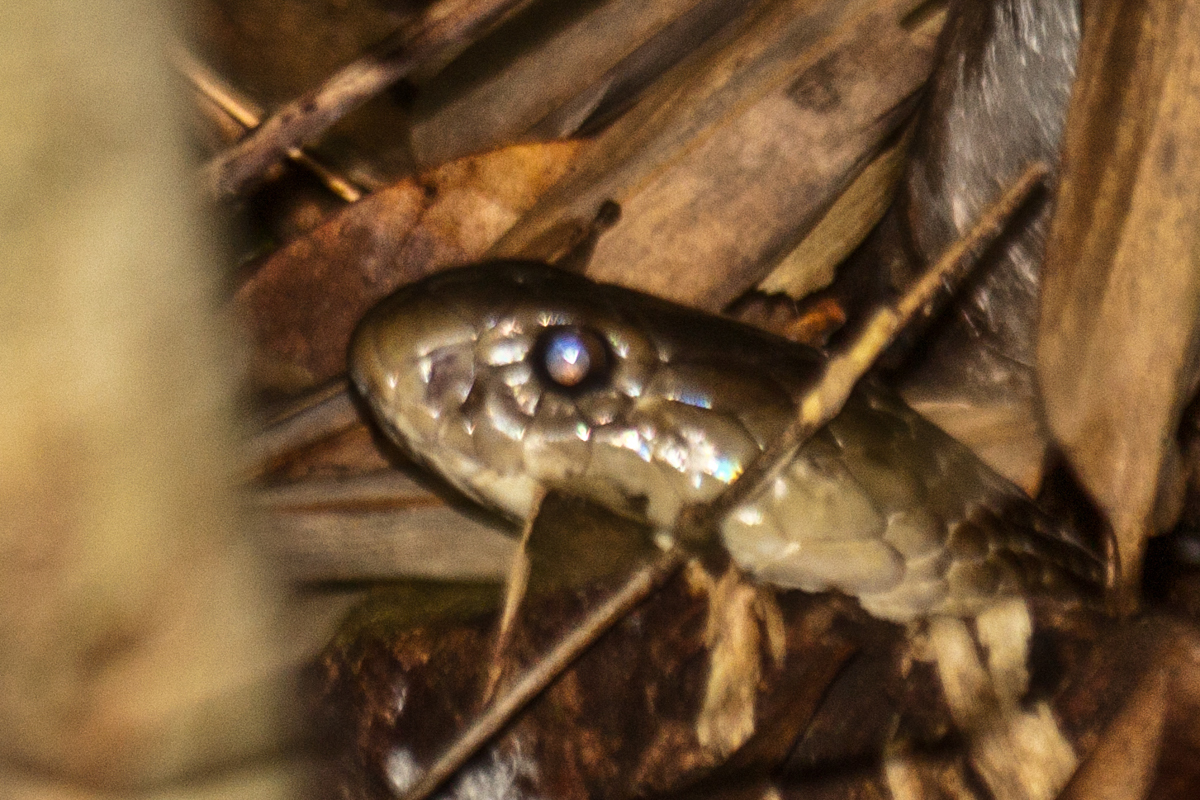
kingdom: Animalia
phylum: Chordata
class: Squamata
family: Elapidae
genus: Naja
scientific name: Naja kaouthia
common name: Monocled cobra
